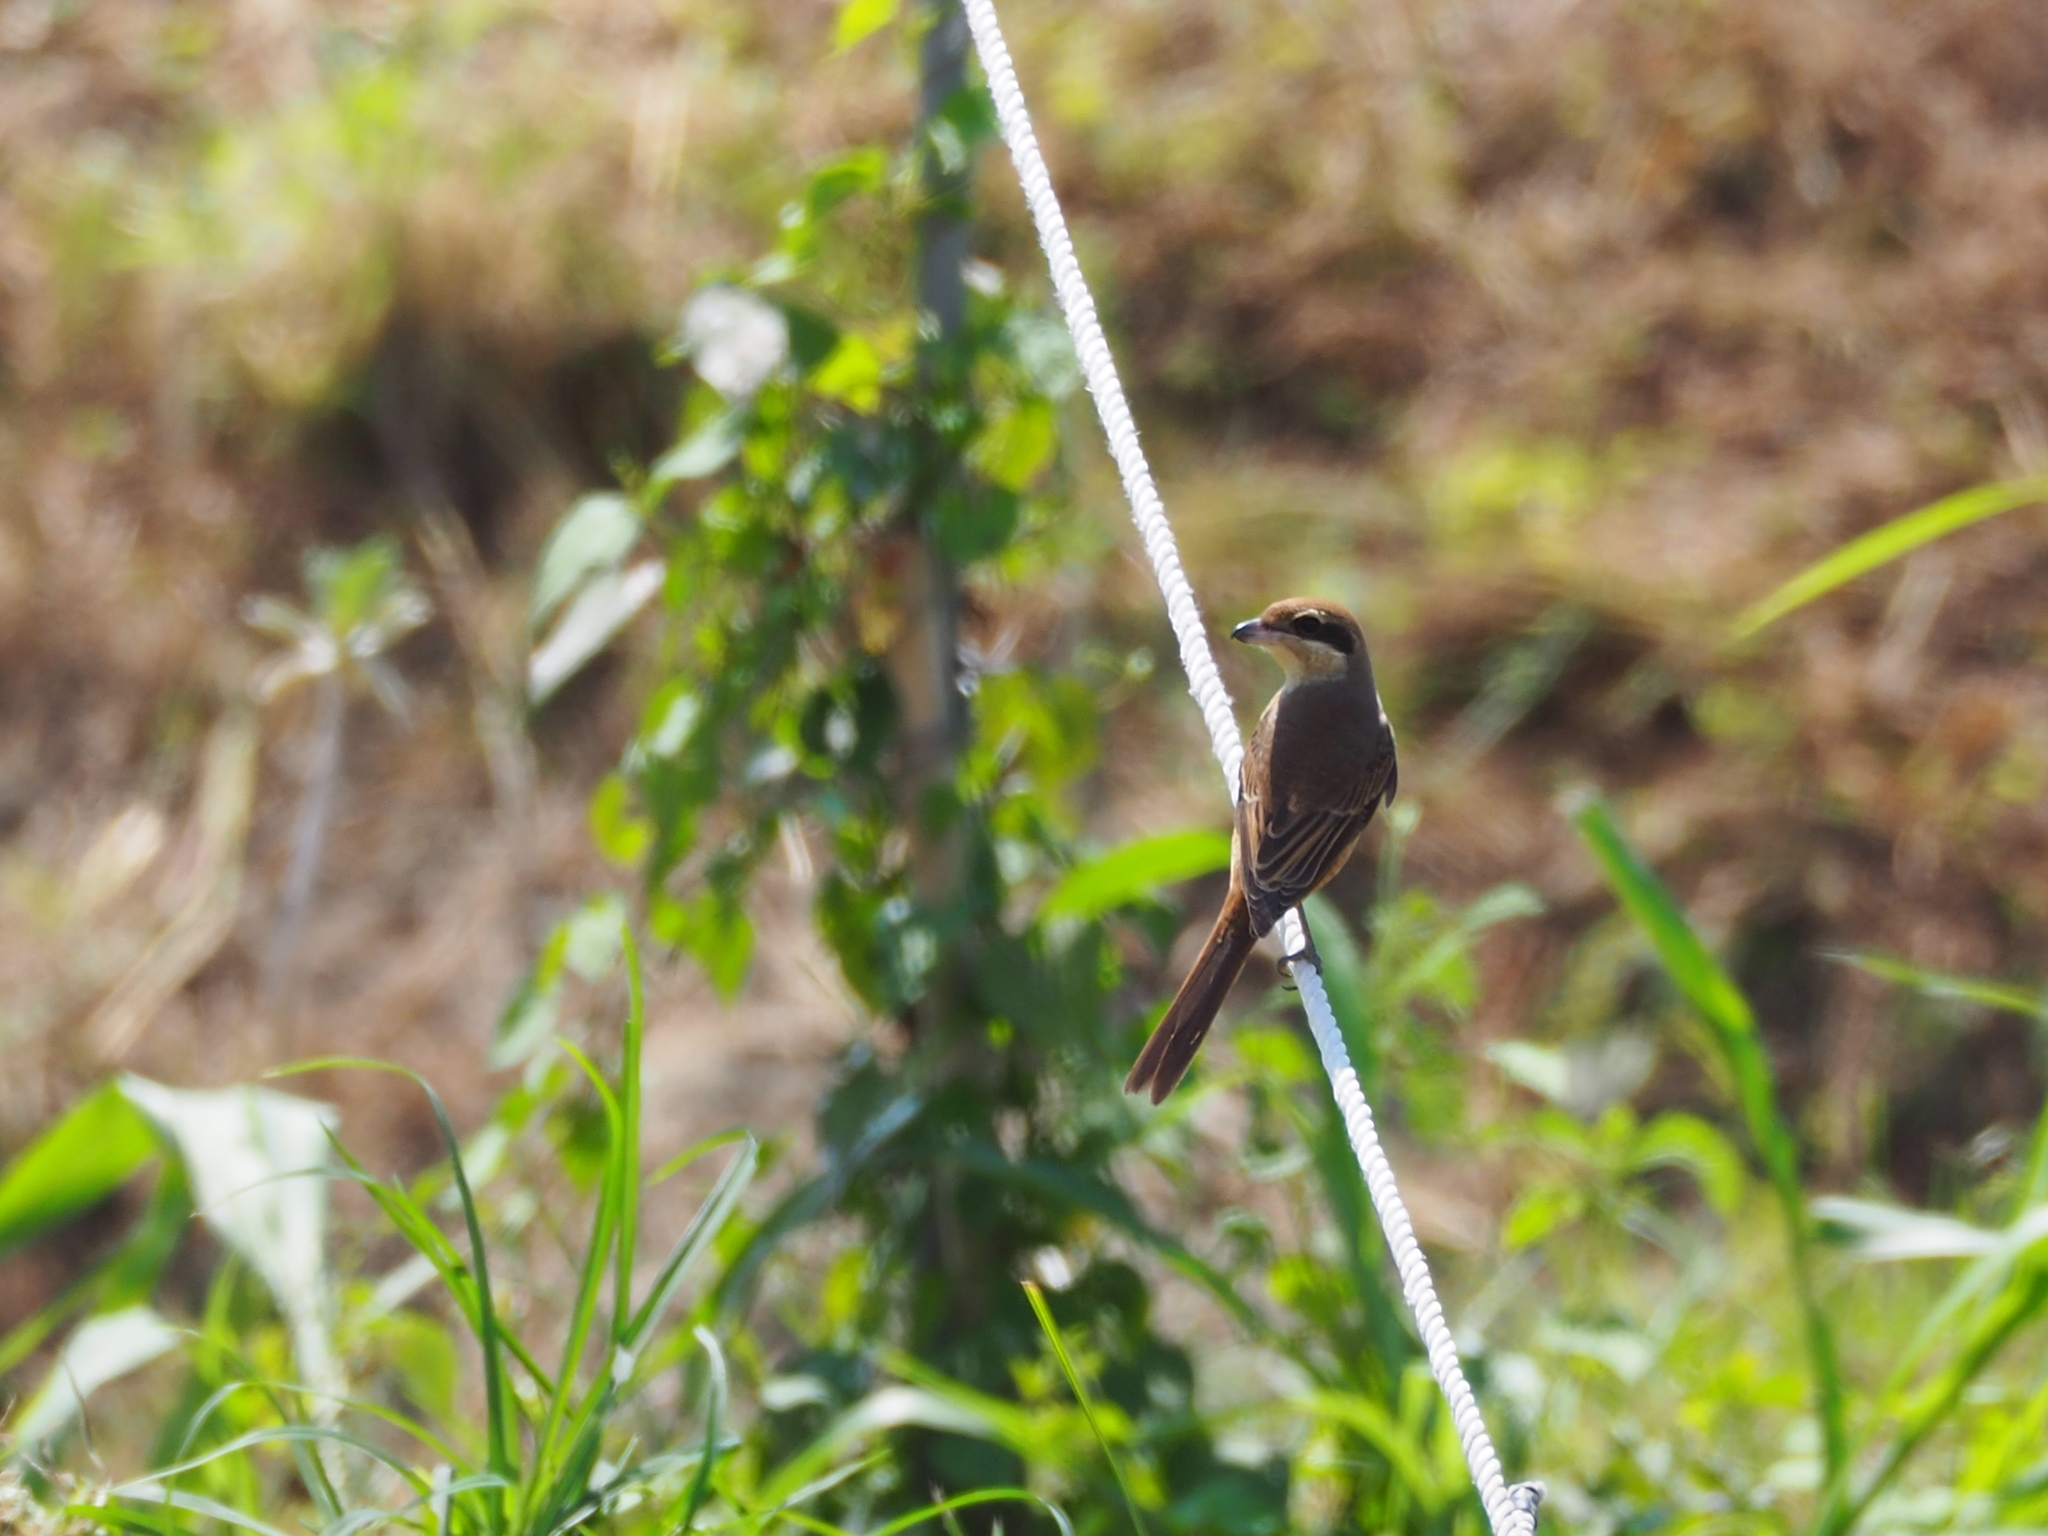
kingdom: Animalia
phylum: Chordata
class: Aves
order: Passeriformes
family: Laniidae
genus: Lanius
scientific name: Lanius cristatus
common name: Brown shrike
